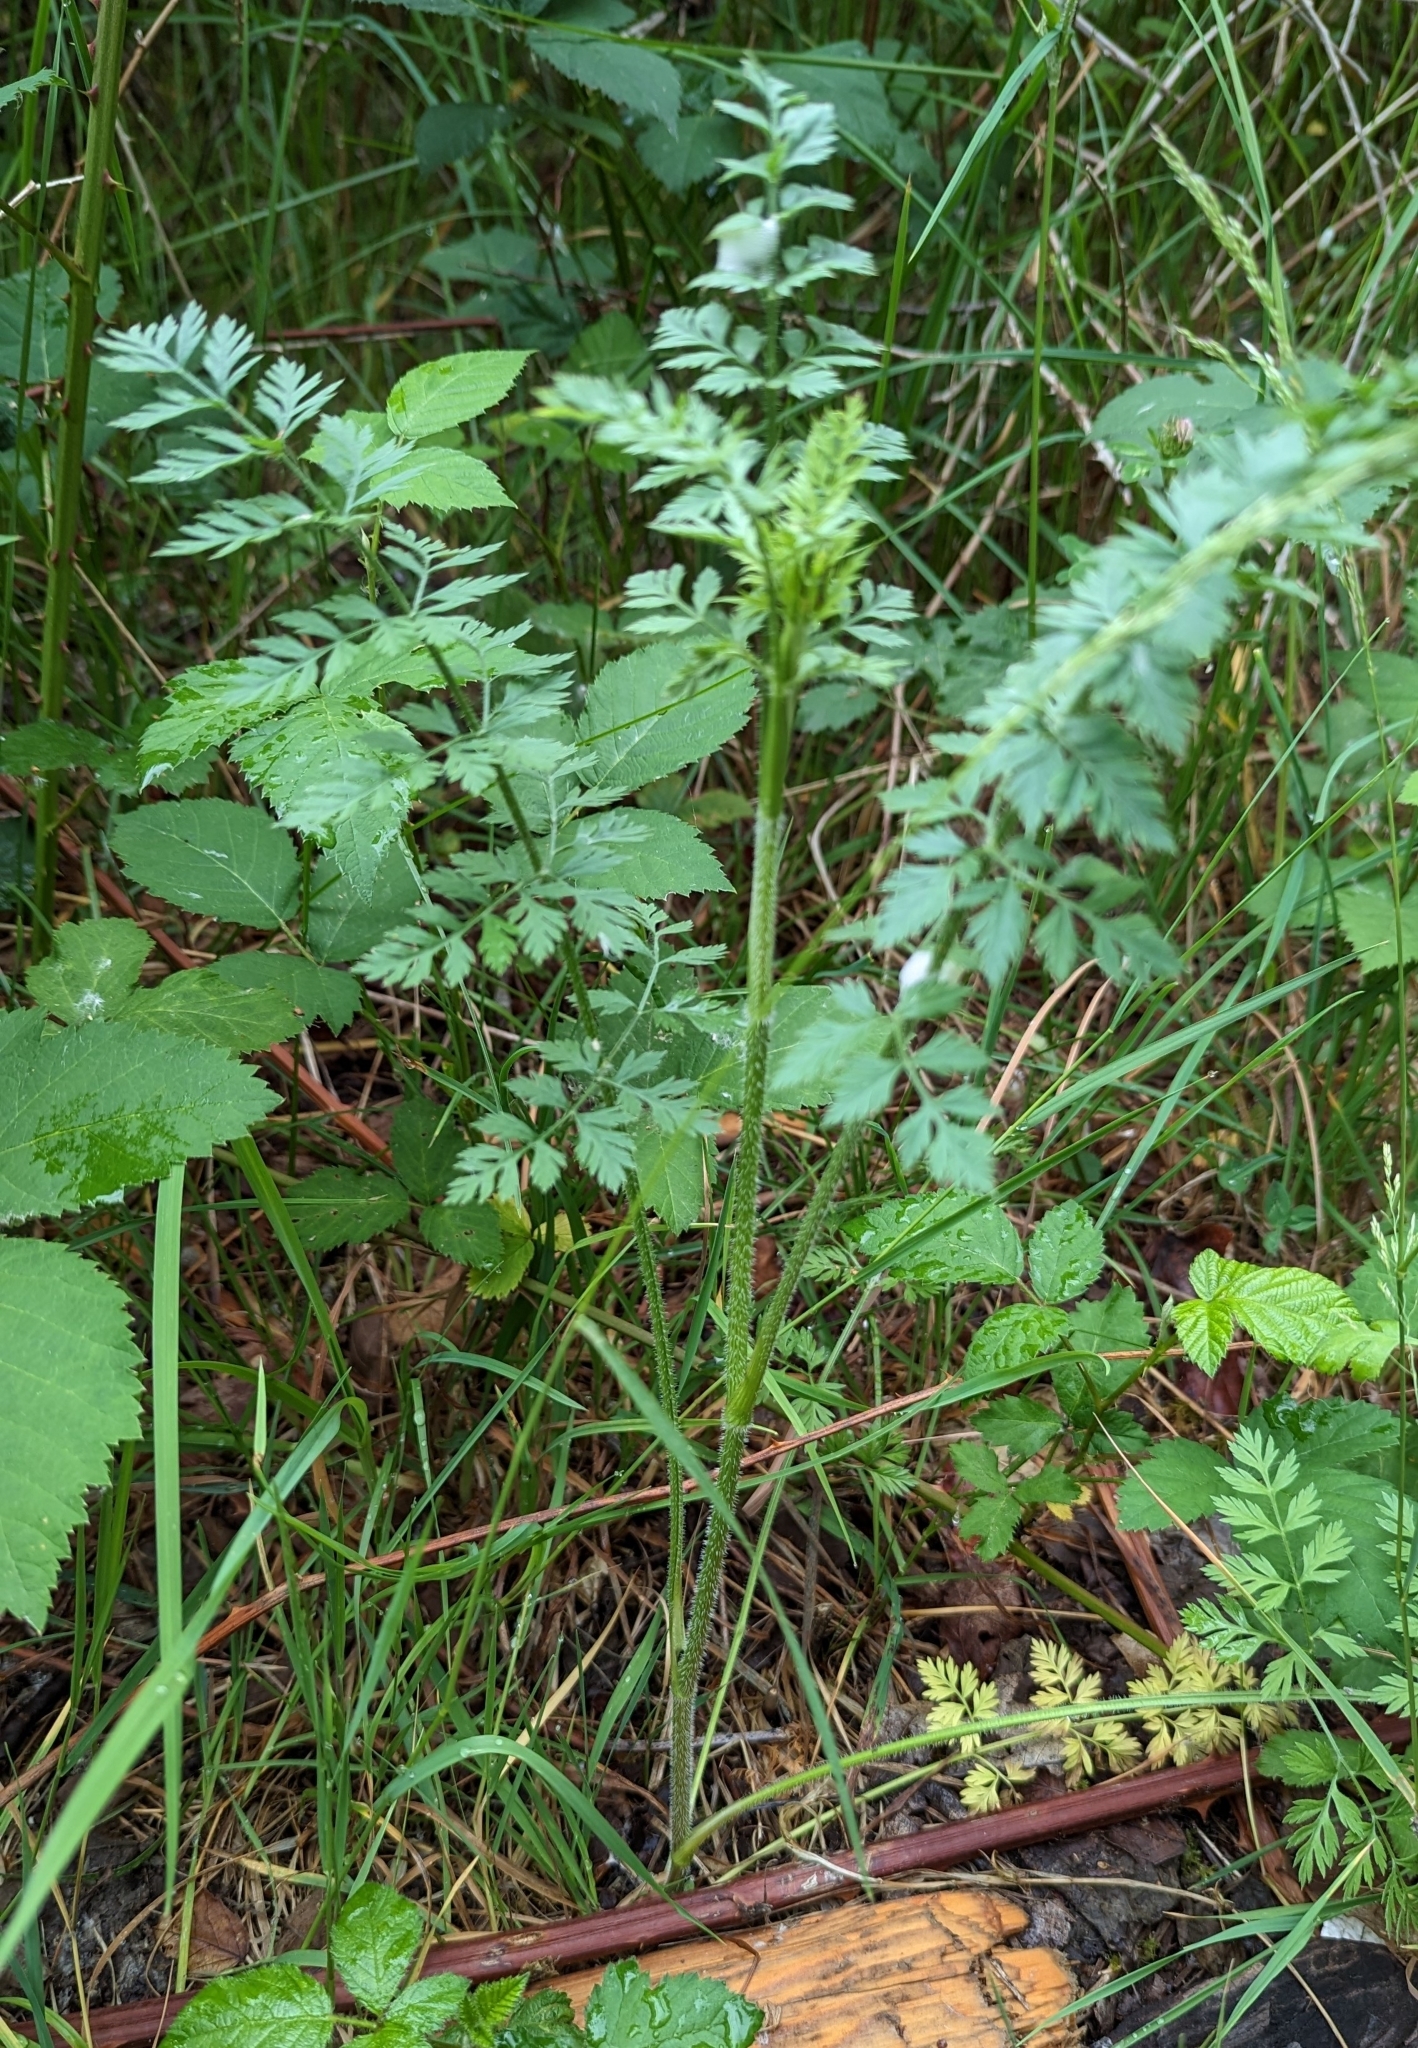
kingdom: Plantae
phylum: Tracheophyta
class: Magnoliopsida
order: Apiales
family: Apiaceae
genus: Daucus
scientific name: Daucus carota
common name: Wild carrot
